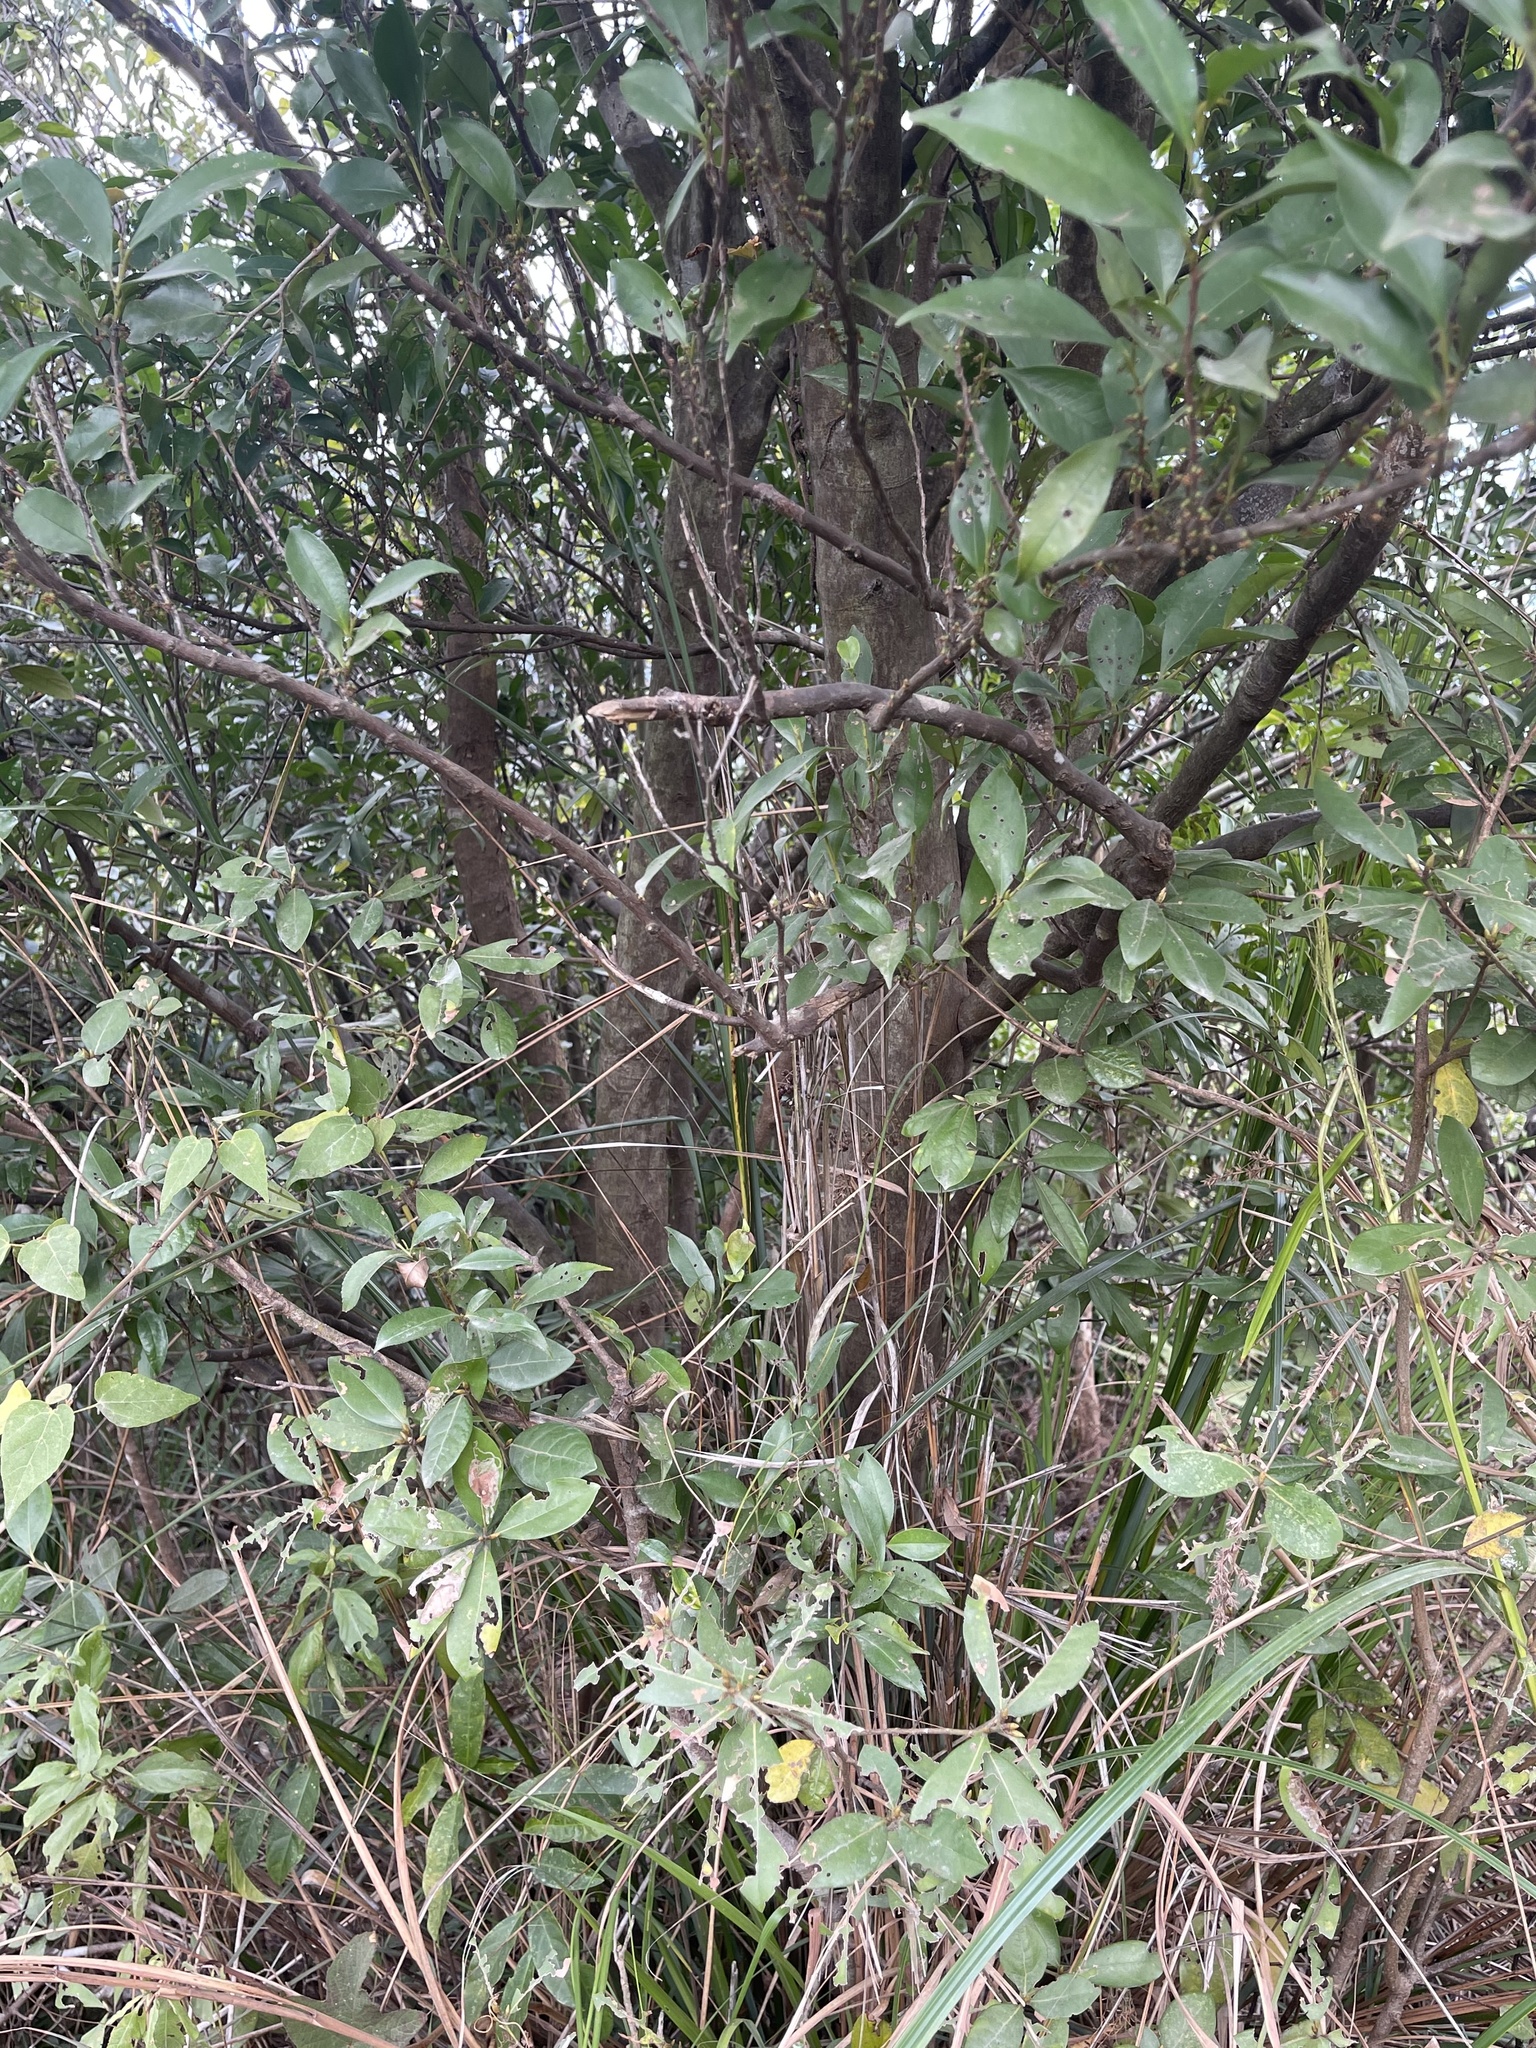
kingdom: Plantae
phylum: Tracheophyta
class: Magnoliopsida
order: Ericales
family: Pentaphylacaceae
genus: Eurya
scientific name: Eurya nitida
